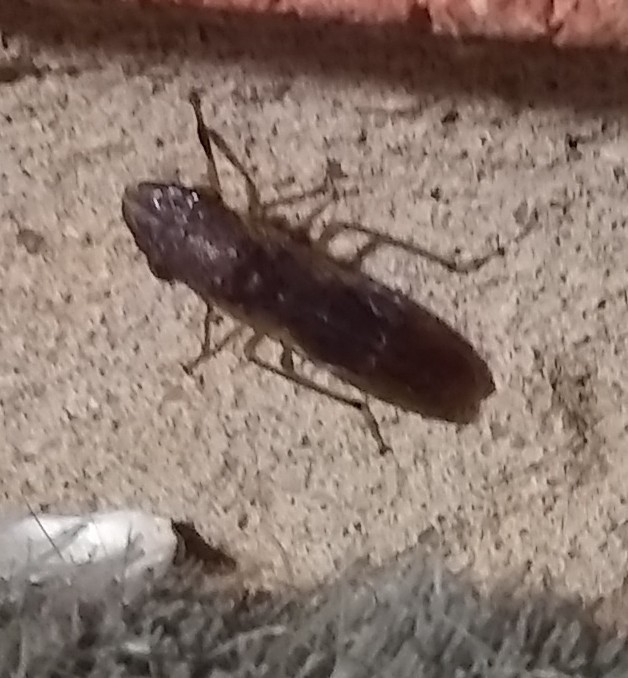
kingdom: Animalia
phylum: Arthropoda
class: Insecta
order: Hemiptera
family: Cicadellidae
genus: Homalodisca
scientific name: Homalodisca vitripennis
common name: Glassy-winged sharpshooter
